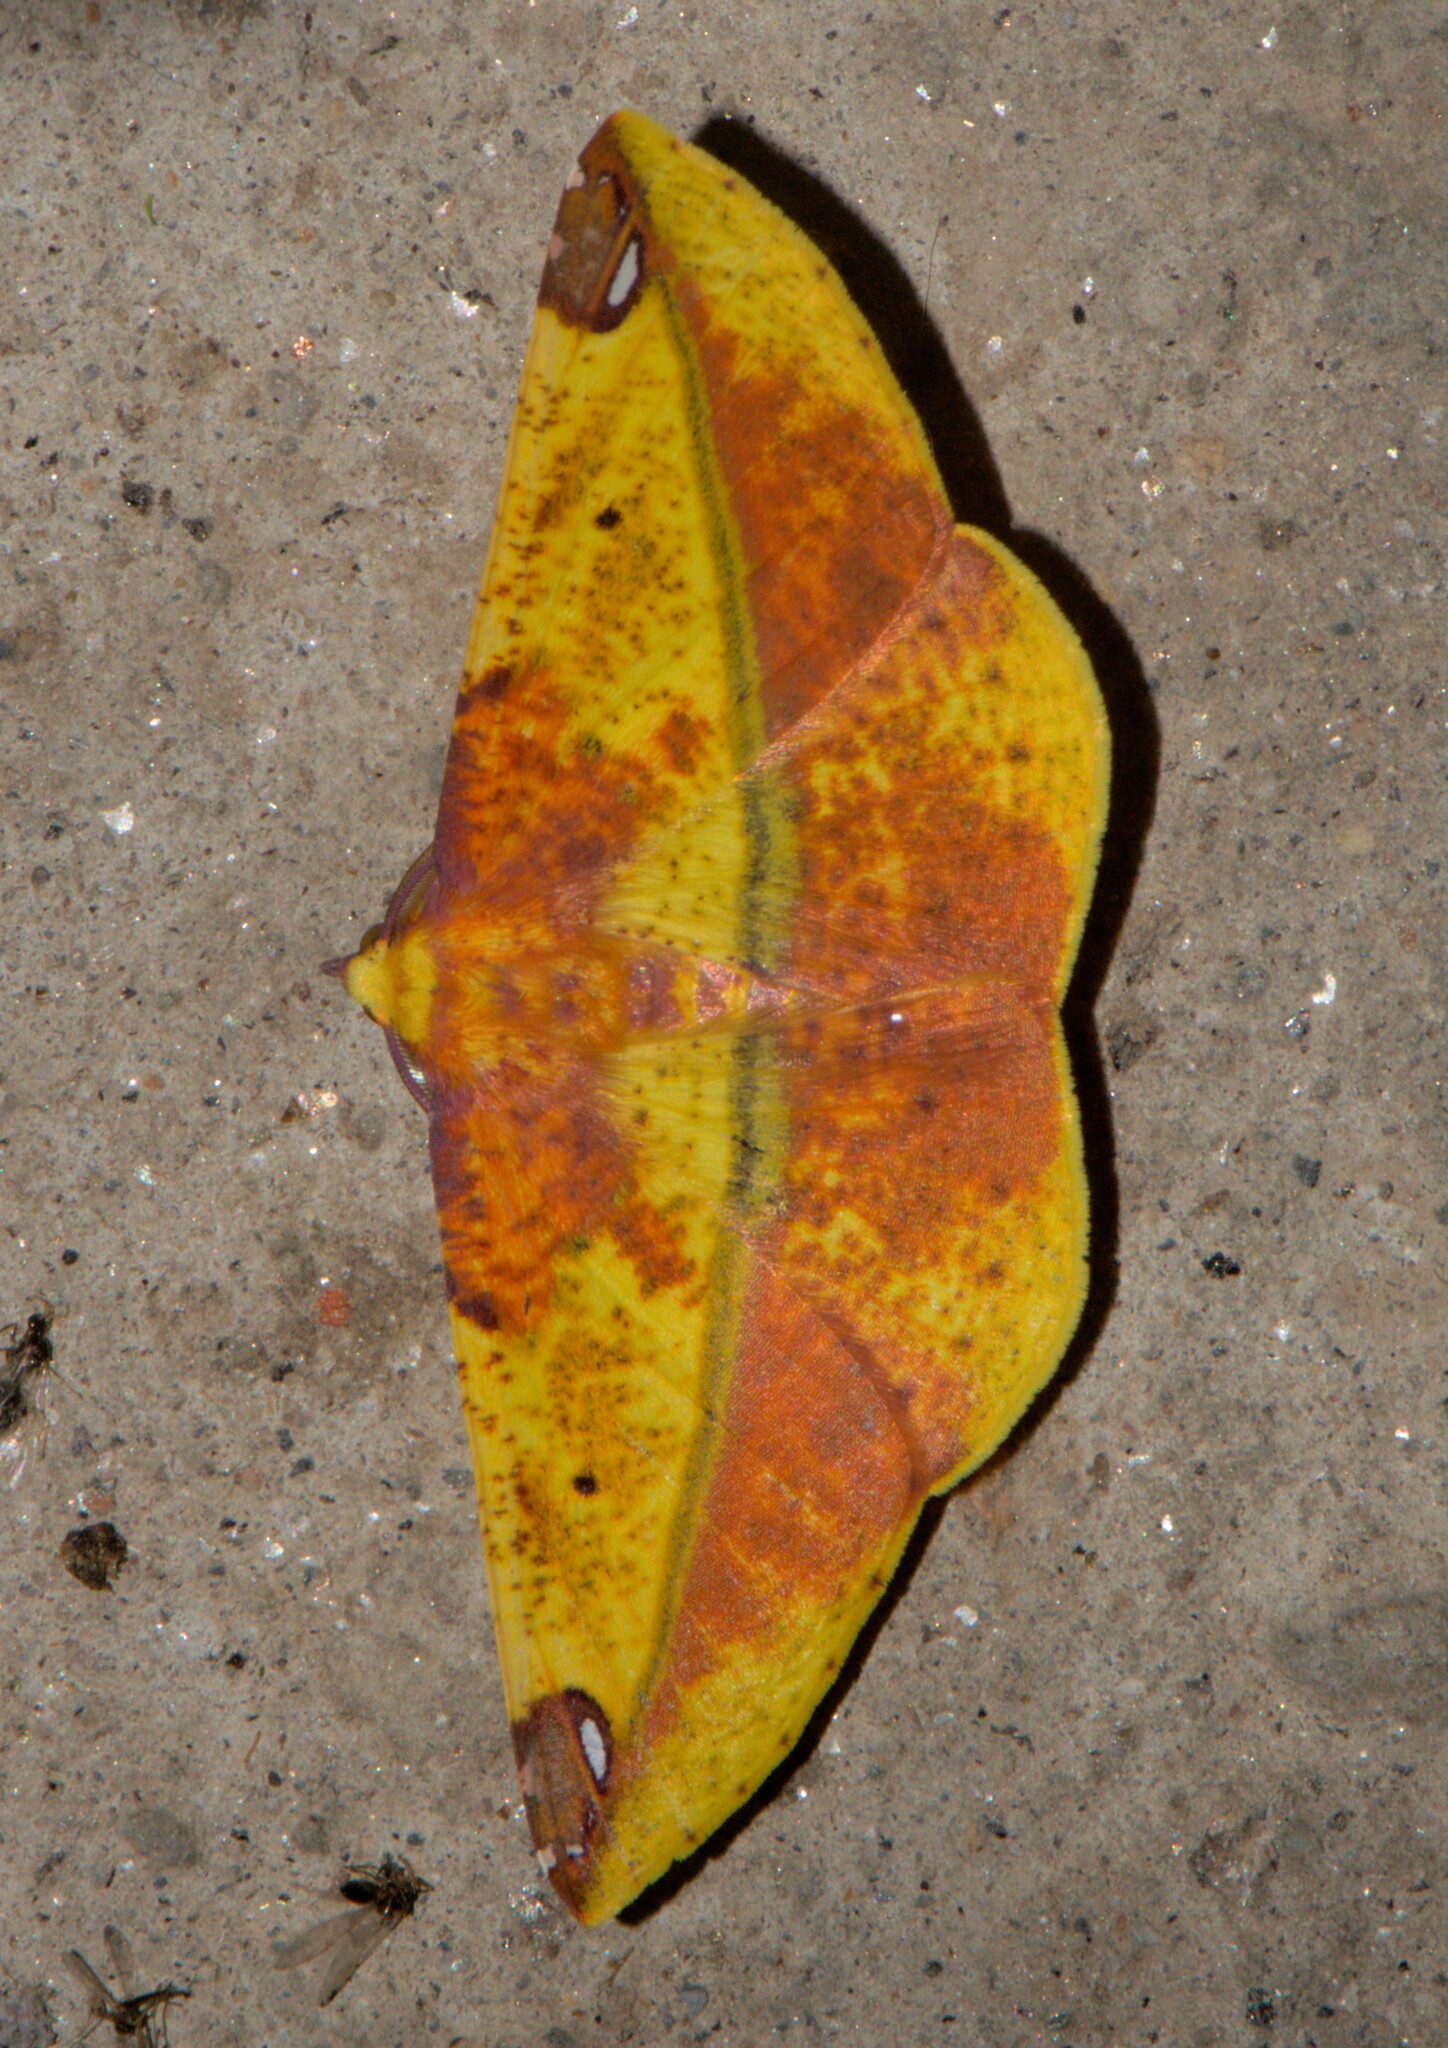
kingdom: Animalia
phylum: Arthropoda
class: Insecta
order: Lepidoptera
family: Geometridae
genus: Mimomiza
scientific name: Mimomiza cruentaria
